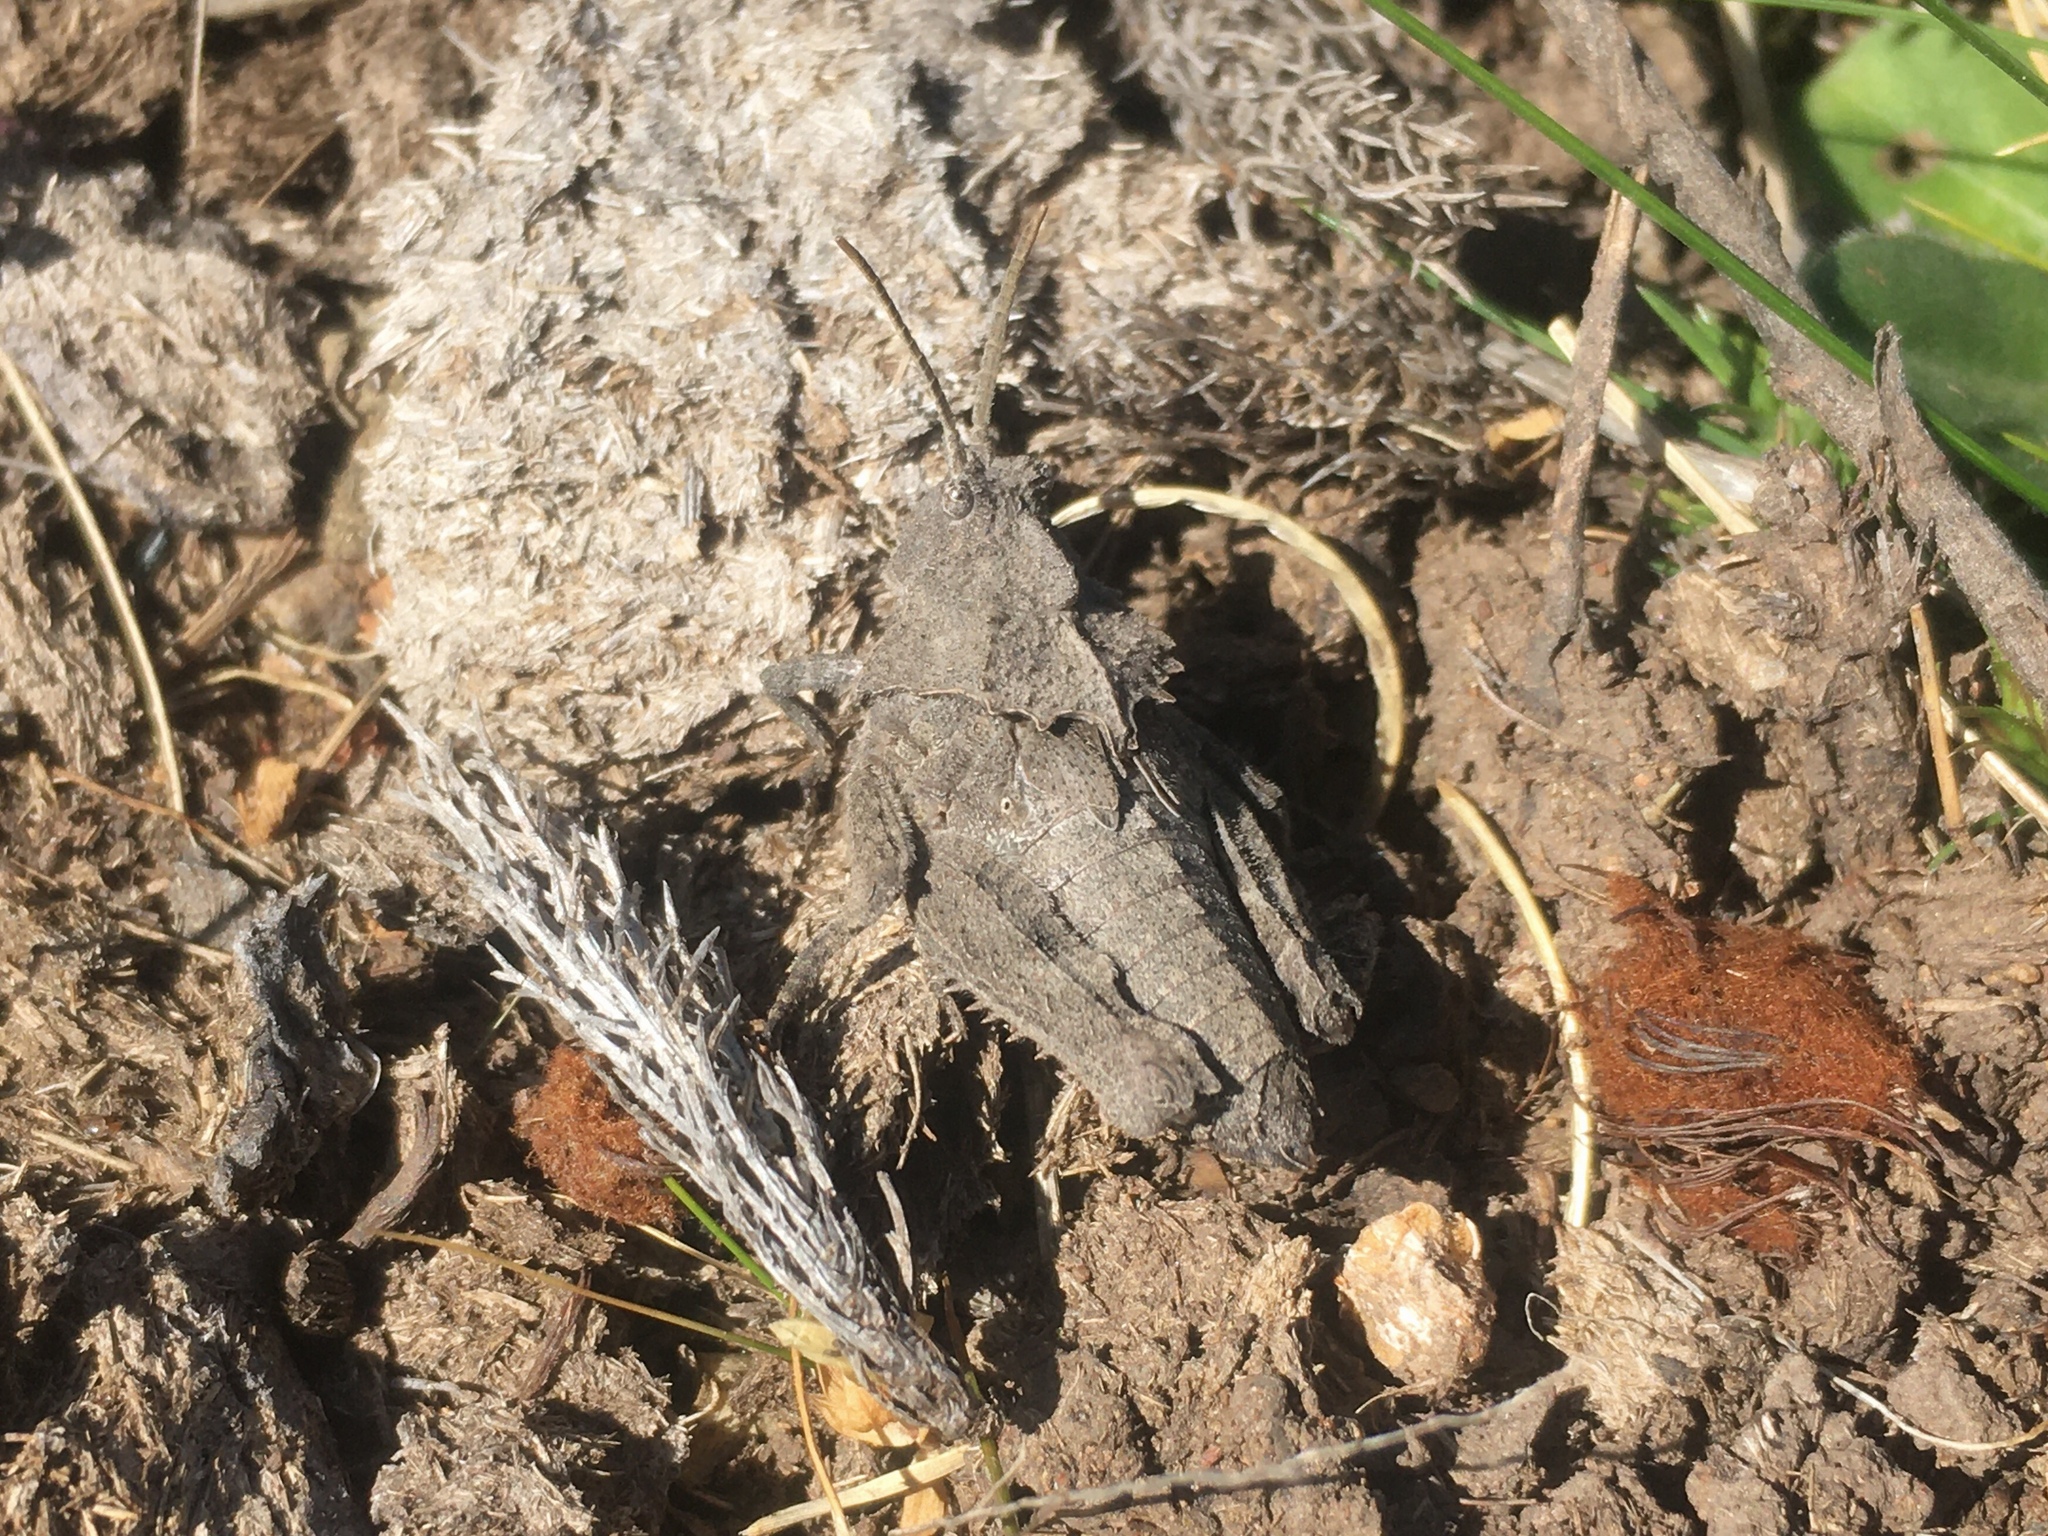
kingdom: Animalia
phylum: Arthropoda
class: Insecta
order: Orthoptera
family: Ommexechidae
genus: Spathalium
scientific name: Spathalium audouinii
